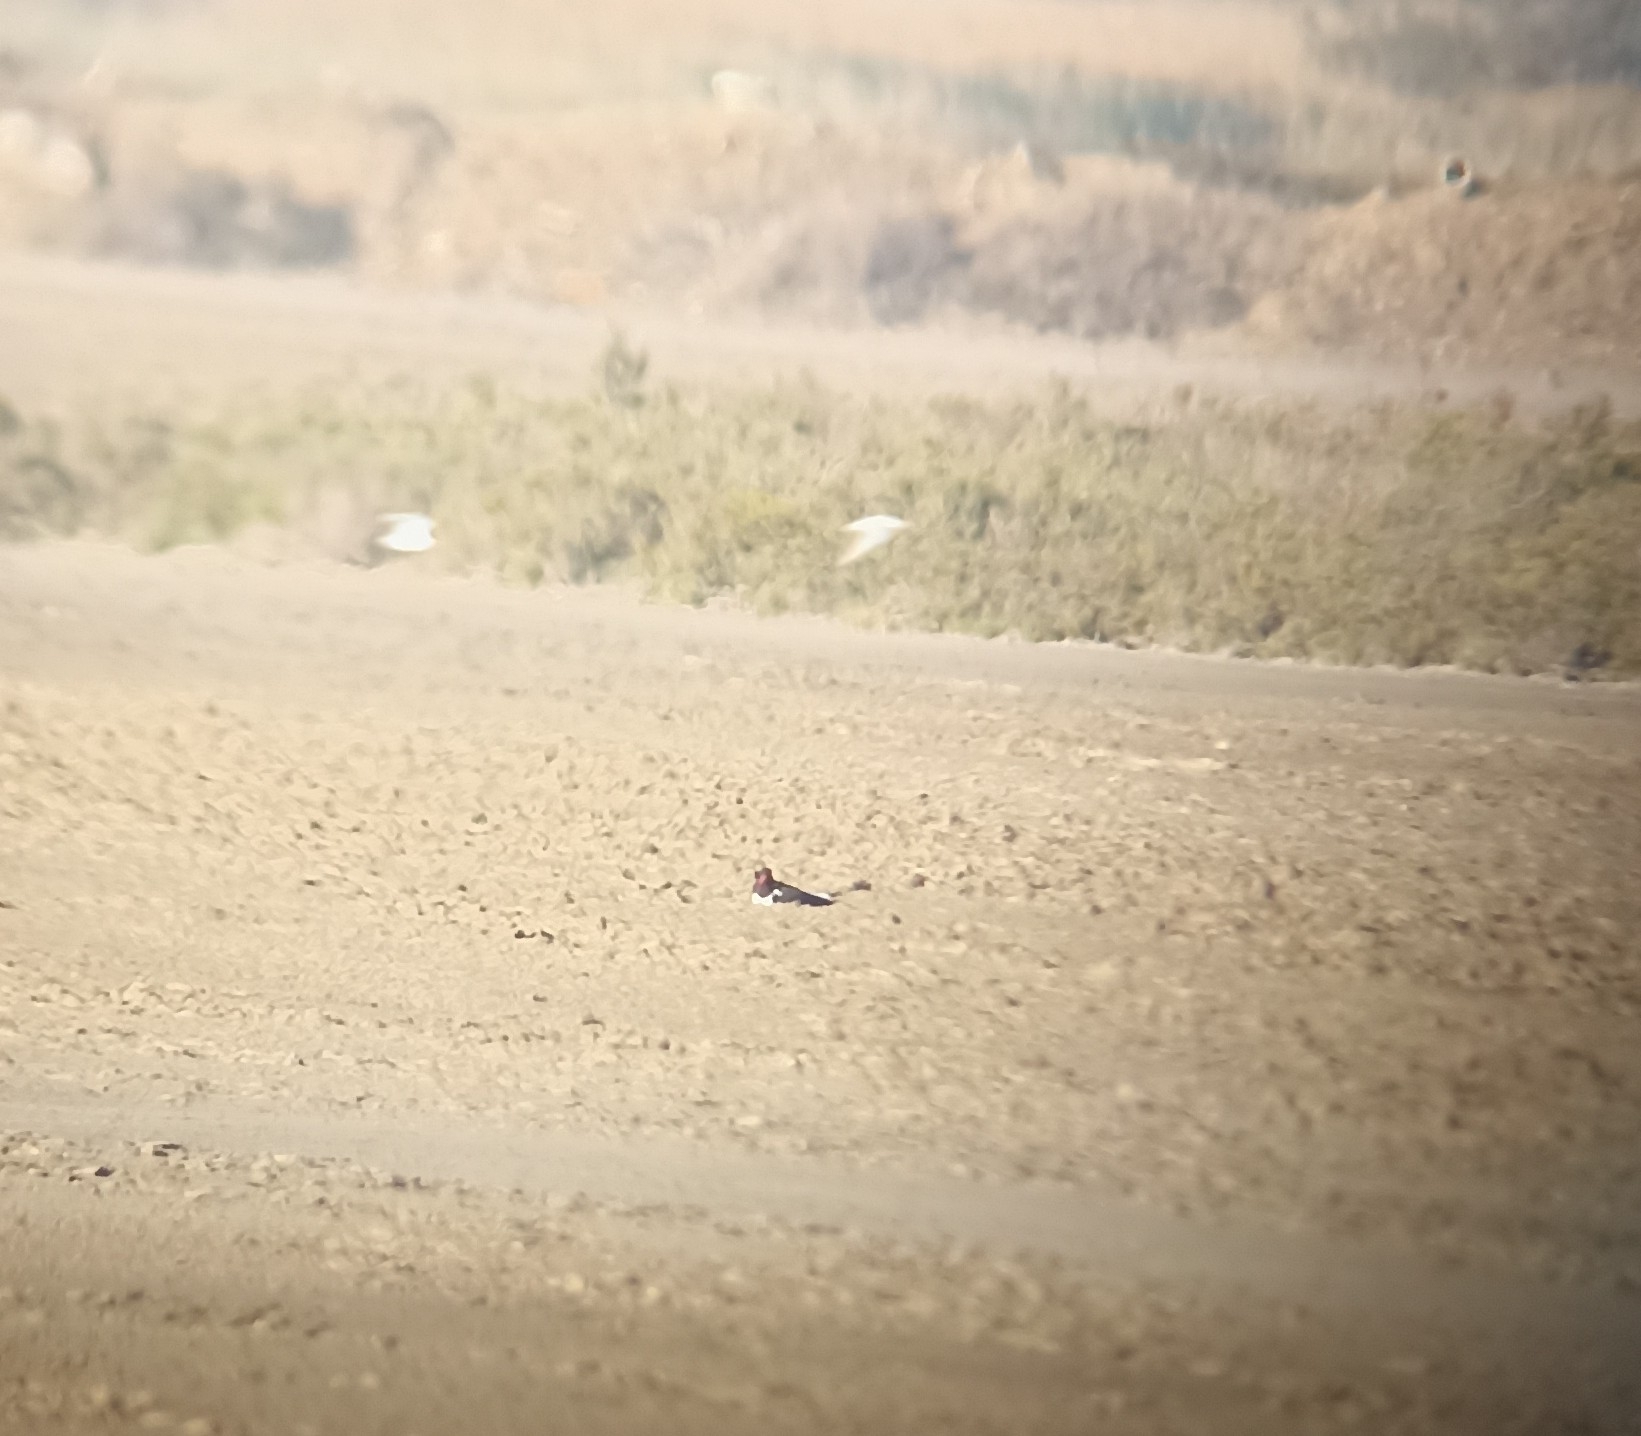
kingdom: Animalia
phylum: Chordata
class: Aves
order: Charadriiformes
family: Haematopodidae
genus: Haematopus
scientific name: Haematopus ostralegus
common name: Eurasian oystercatcher
